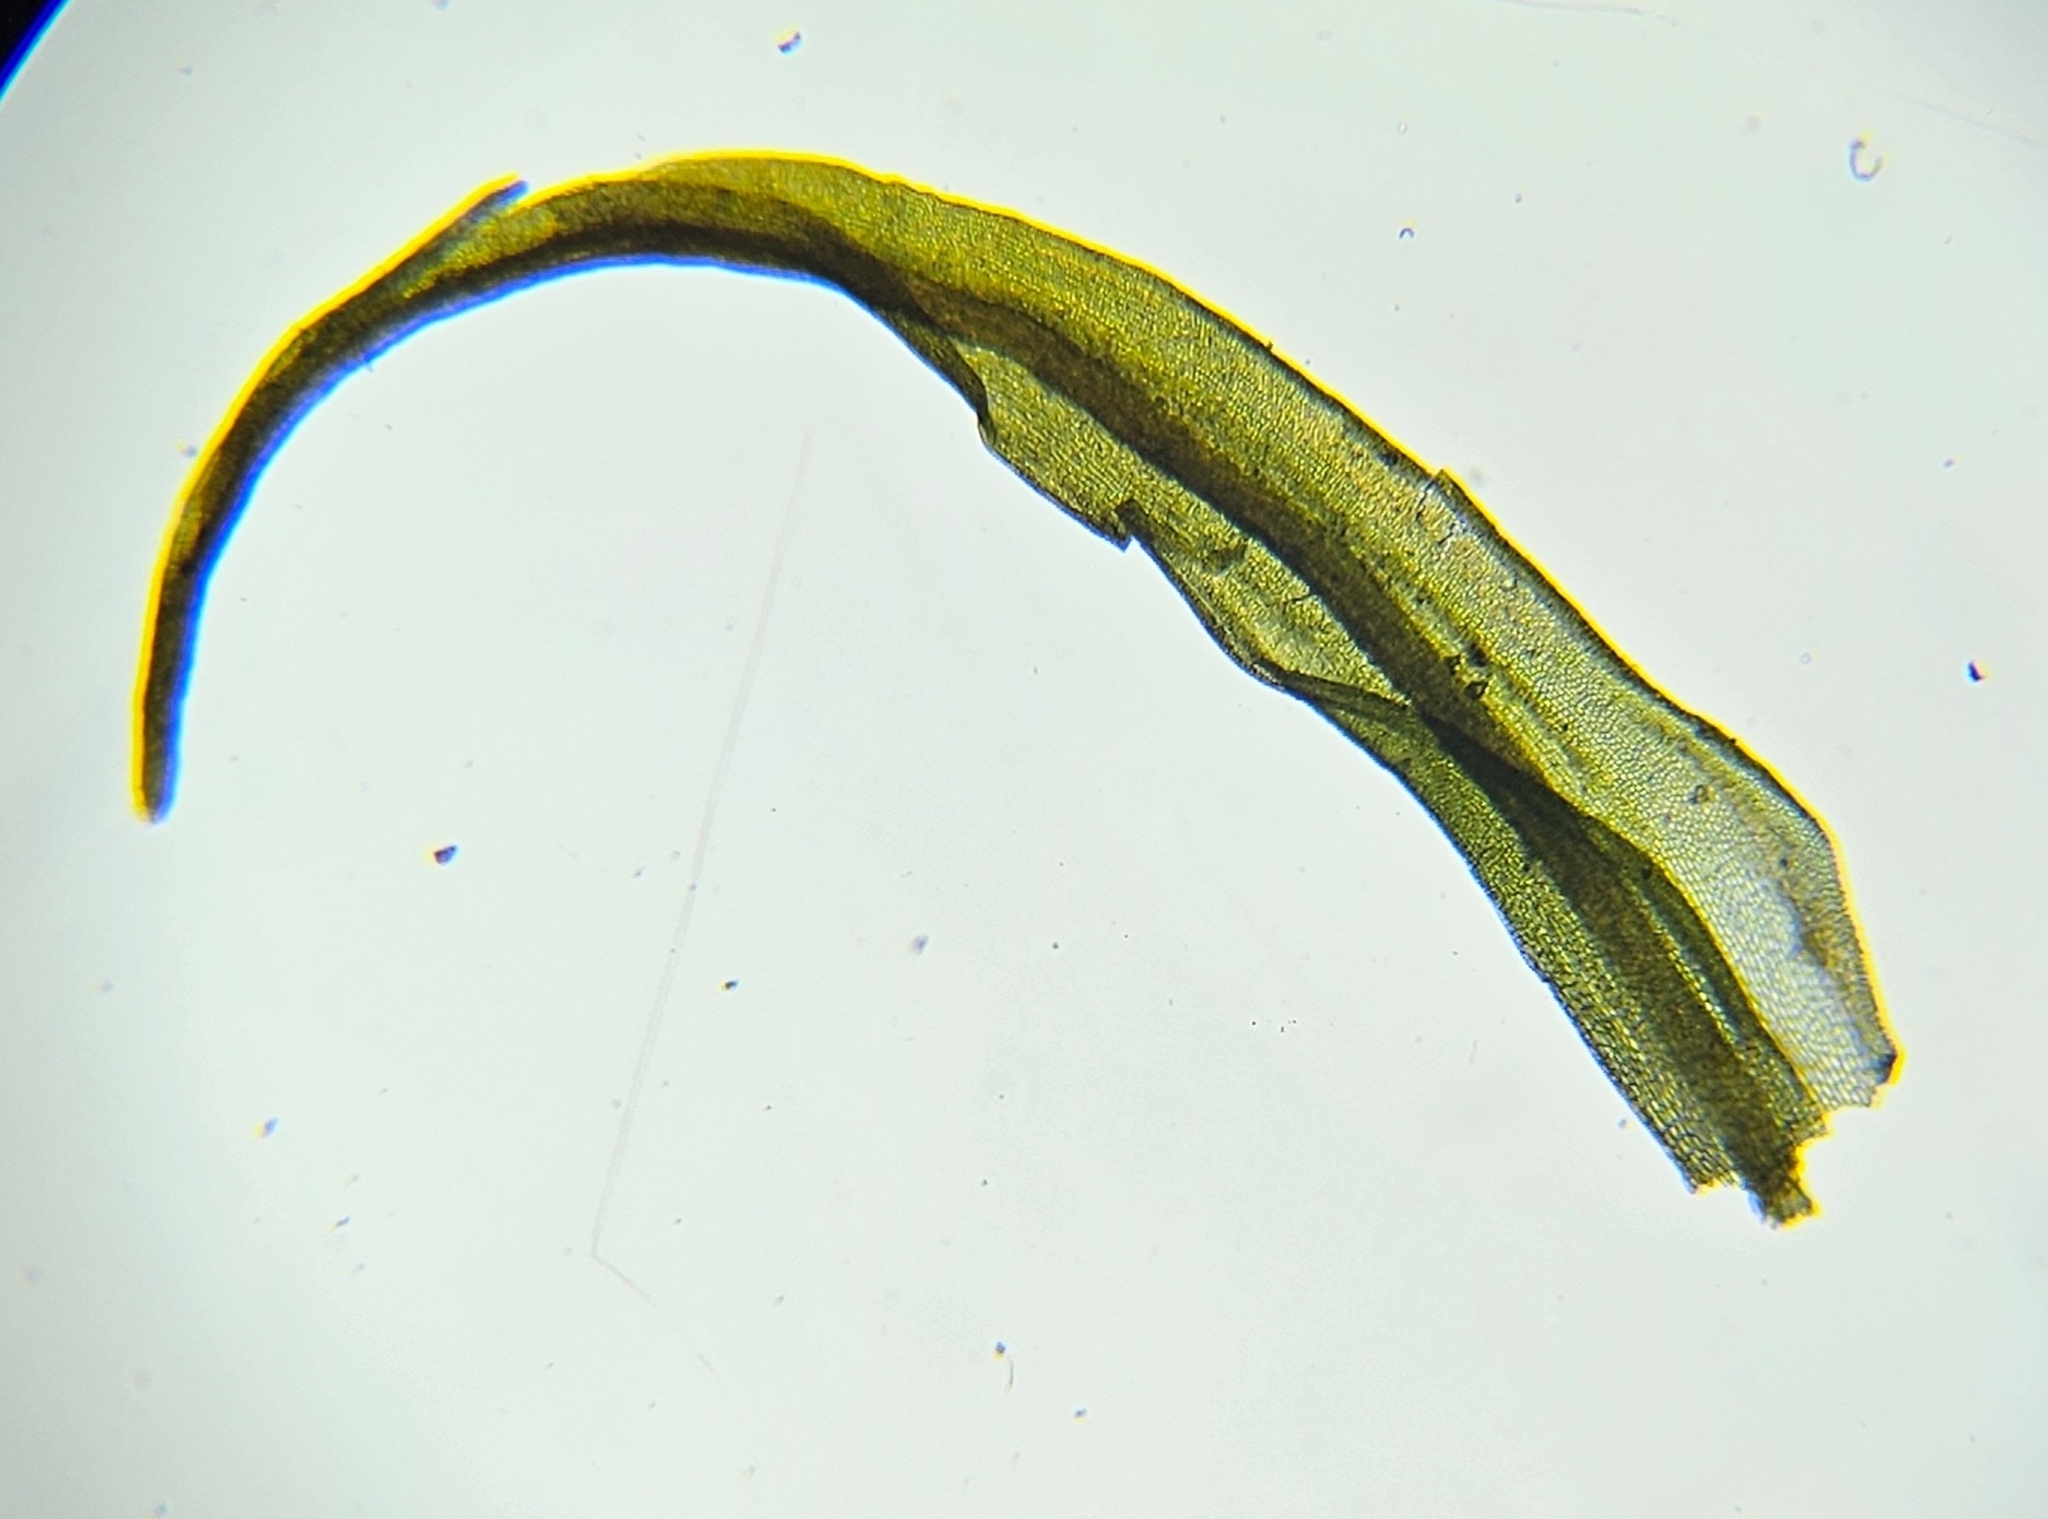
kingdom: Plantae
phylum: Bryophyta
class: Bryopsida
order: Pottiales
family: Pottiaceae
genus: Vinealobryum
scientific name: Vinealobryum insulanum
